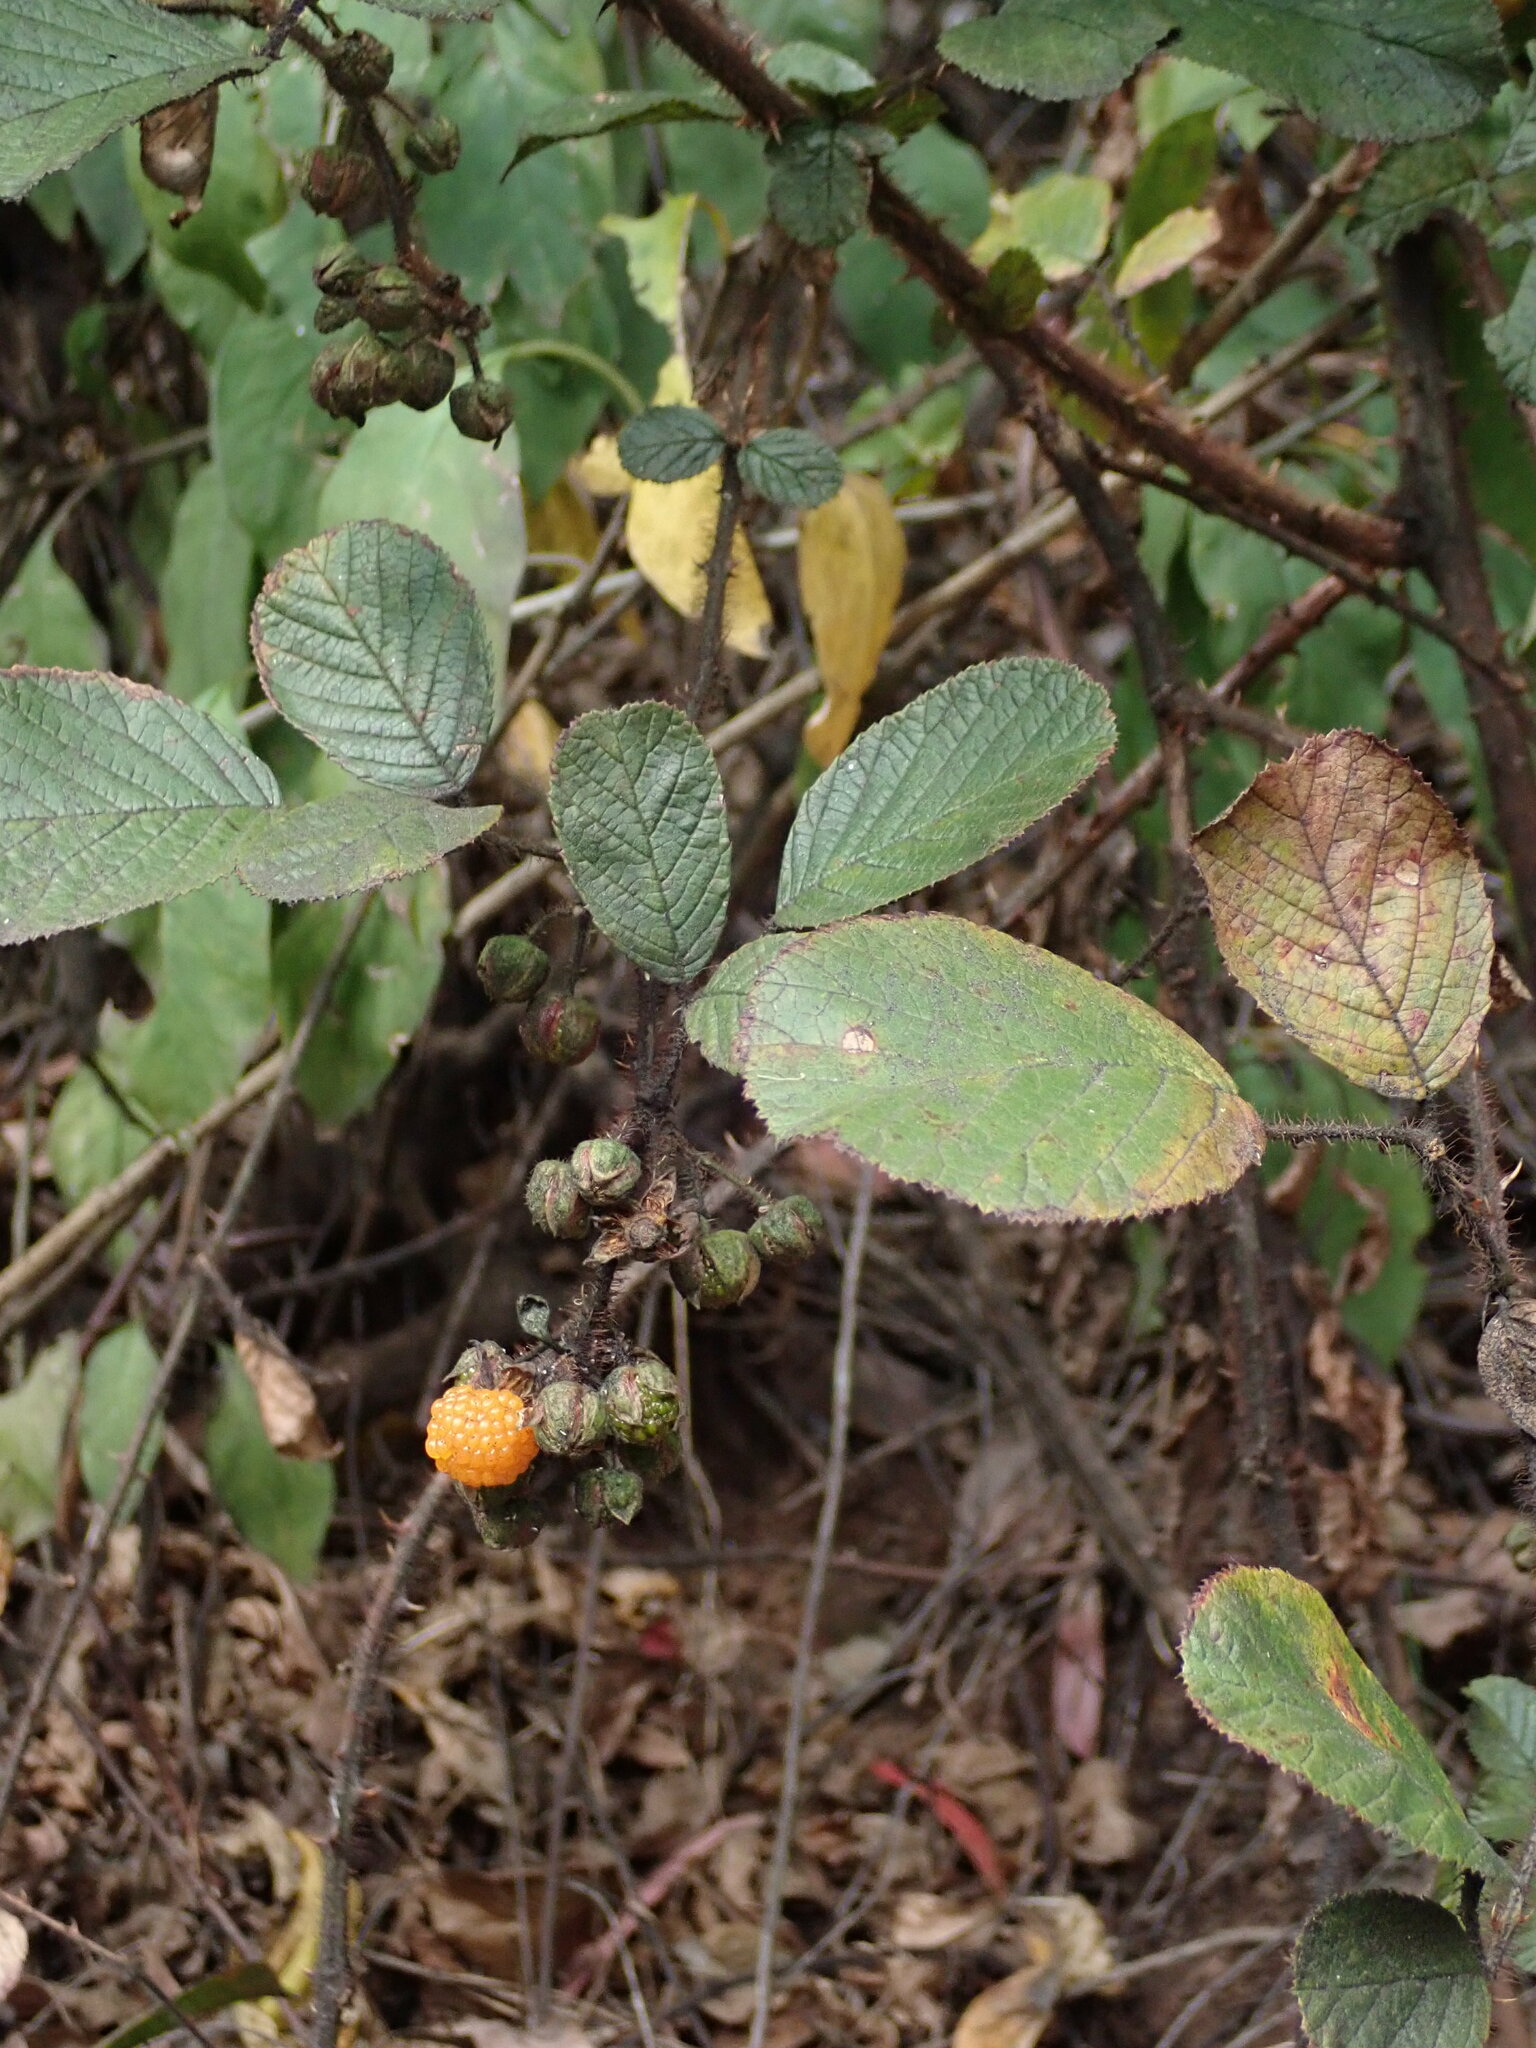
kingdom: Plantae
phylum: Tracheophyta
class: Magnoliopsida
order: Rosales
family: Rosaceae
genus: Rubus
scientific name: Rubus ellipticus
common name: Cheeseberry
